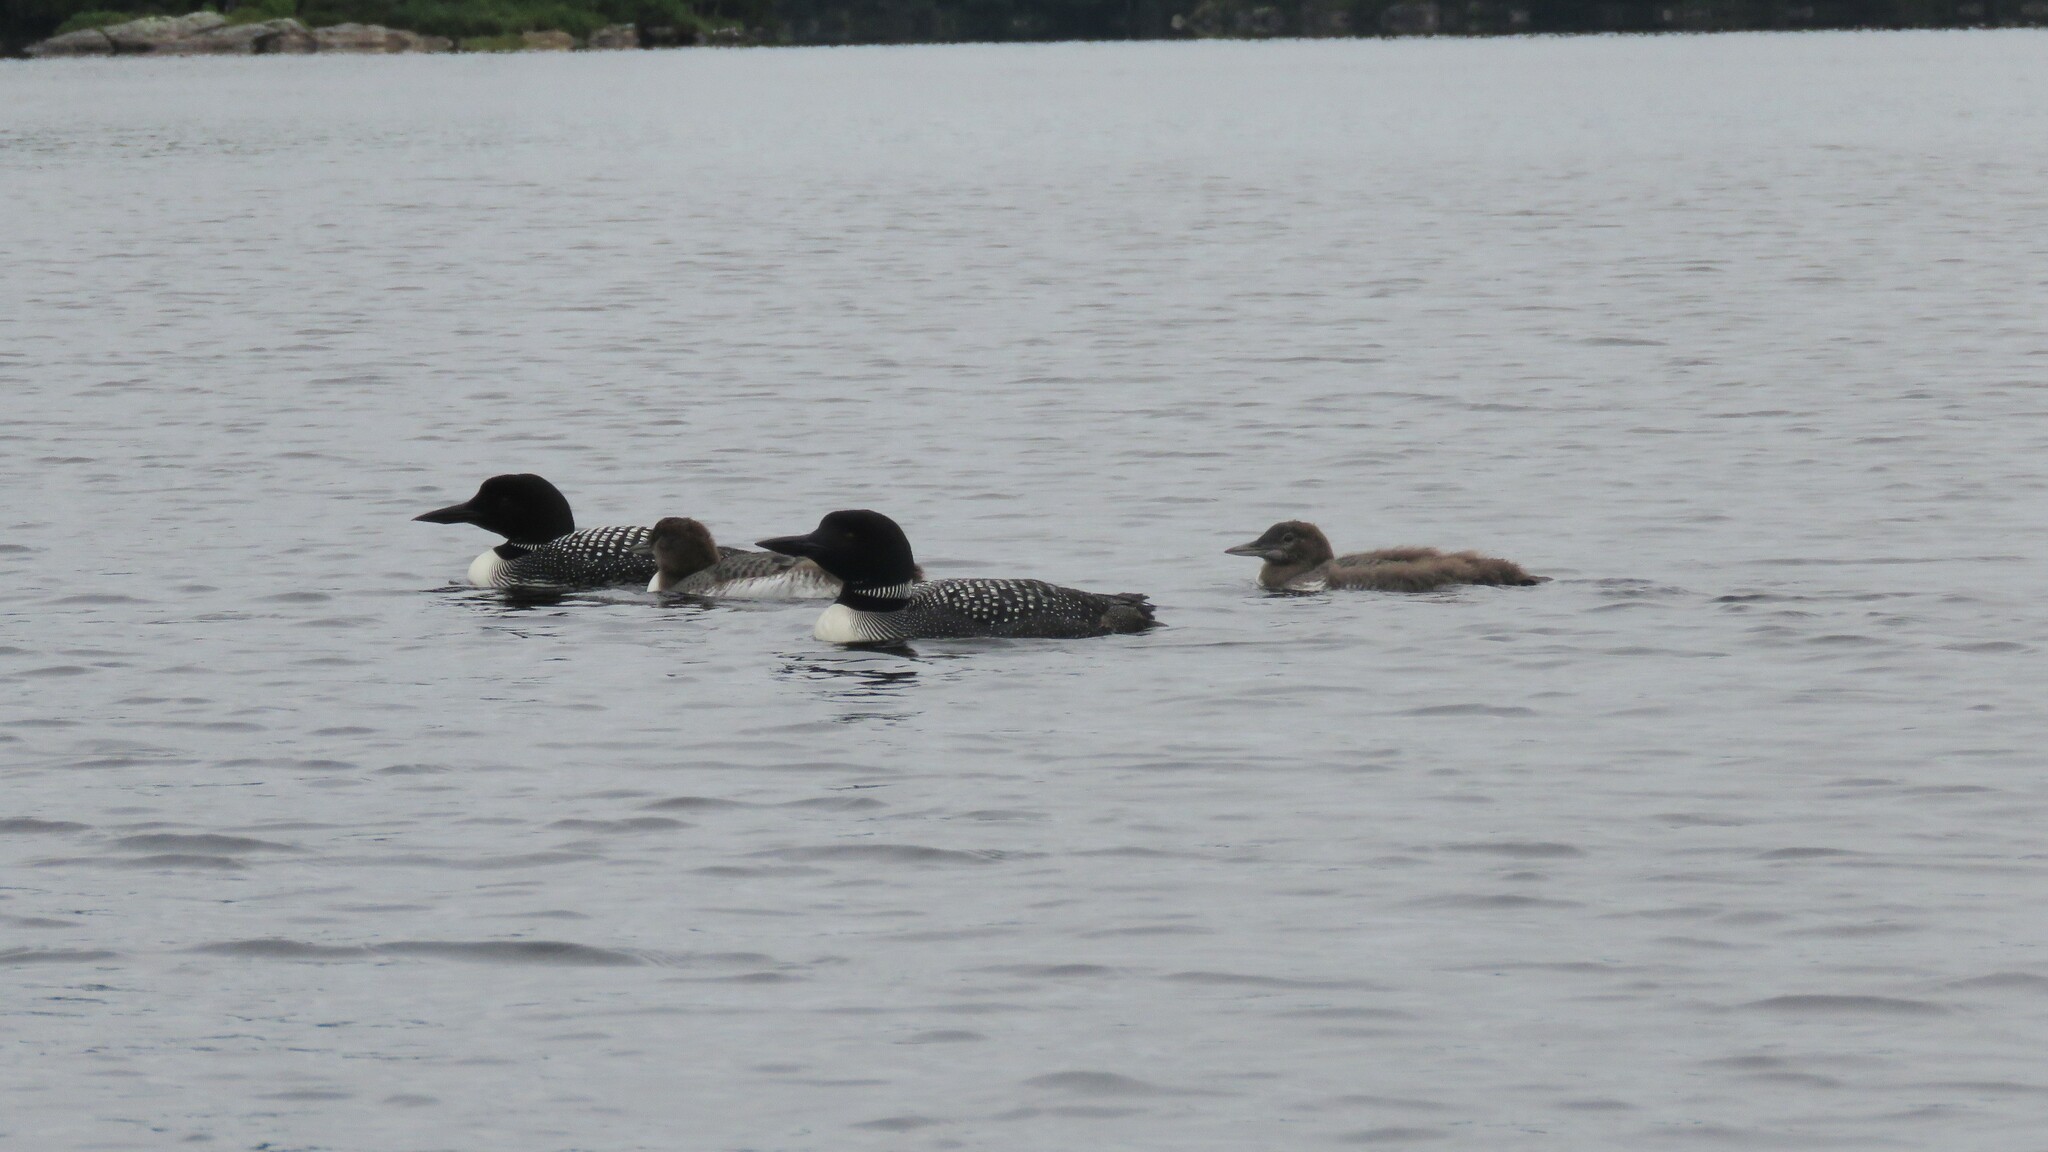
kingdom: Animalia
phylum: Chordata
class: Aves
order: Gaviiformes
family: Gaviidae
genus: Gavia
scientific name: Gavia immer
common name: Common loon
